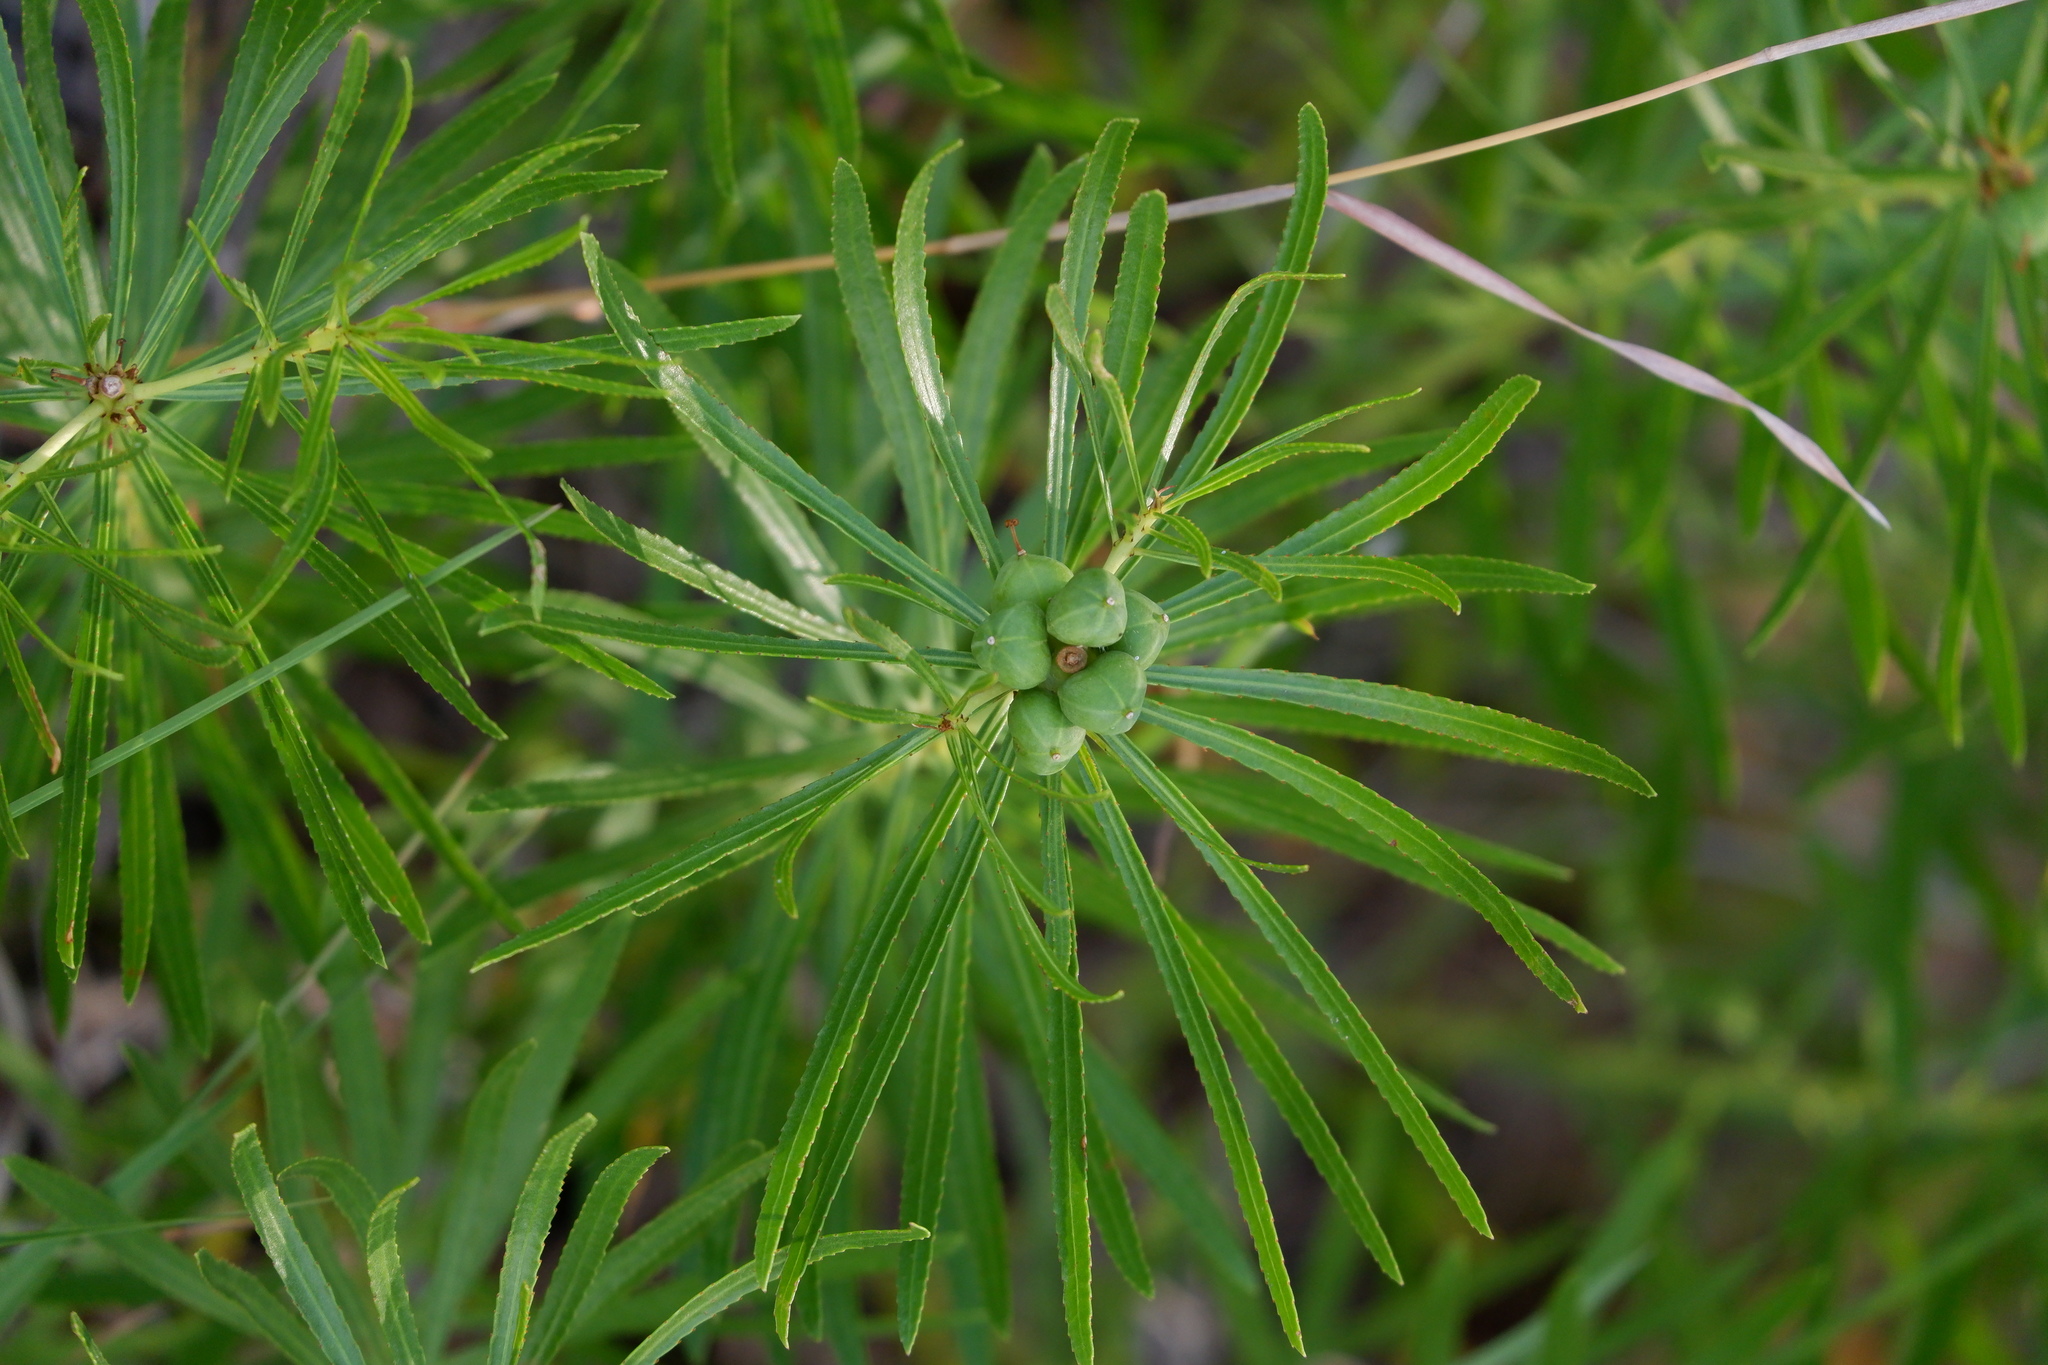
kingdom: Plantae
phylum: Tracheophyta
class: Magnoliopsida
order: Malpighiales
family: Euphorbiaceae
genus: Stillingia
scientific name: Stillingia texana
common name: Texas stillingia
